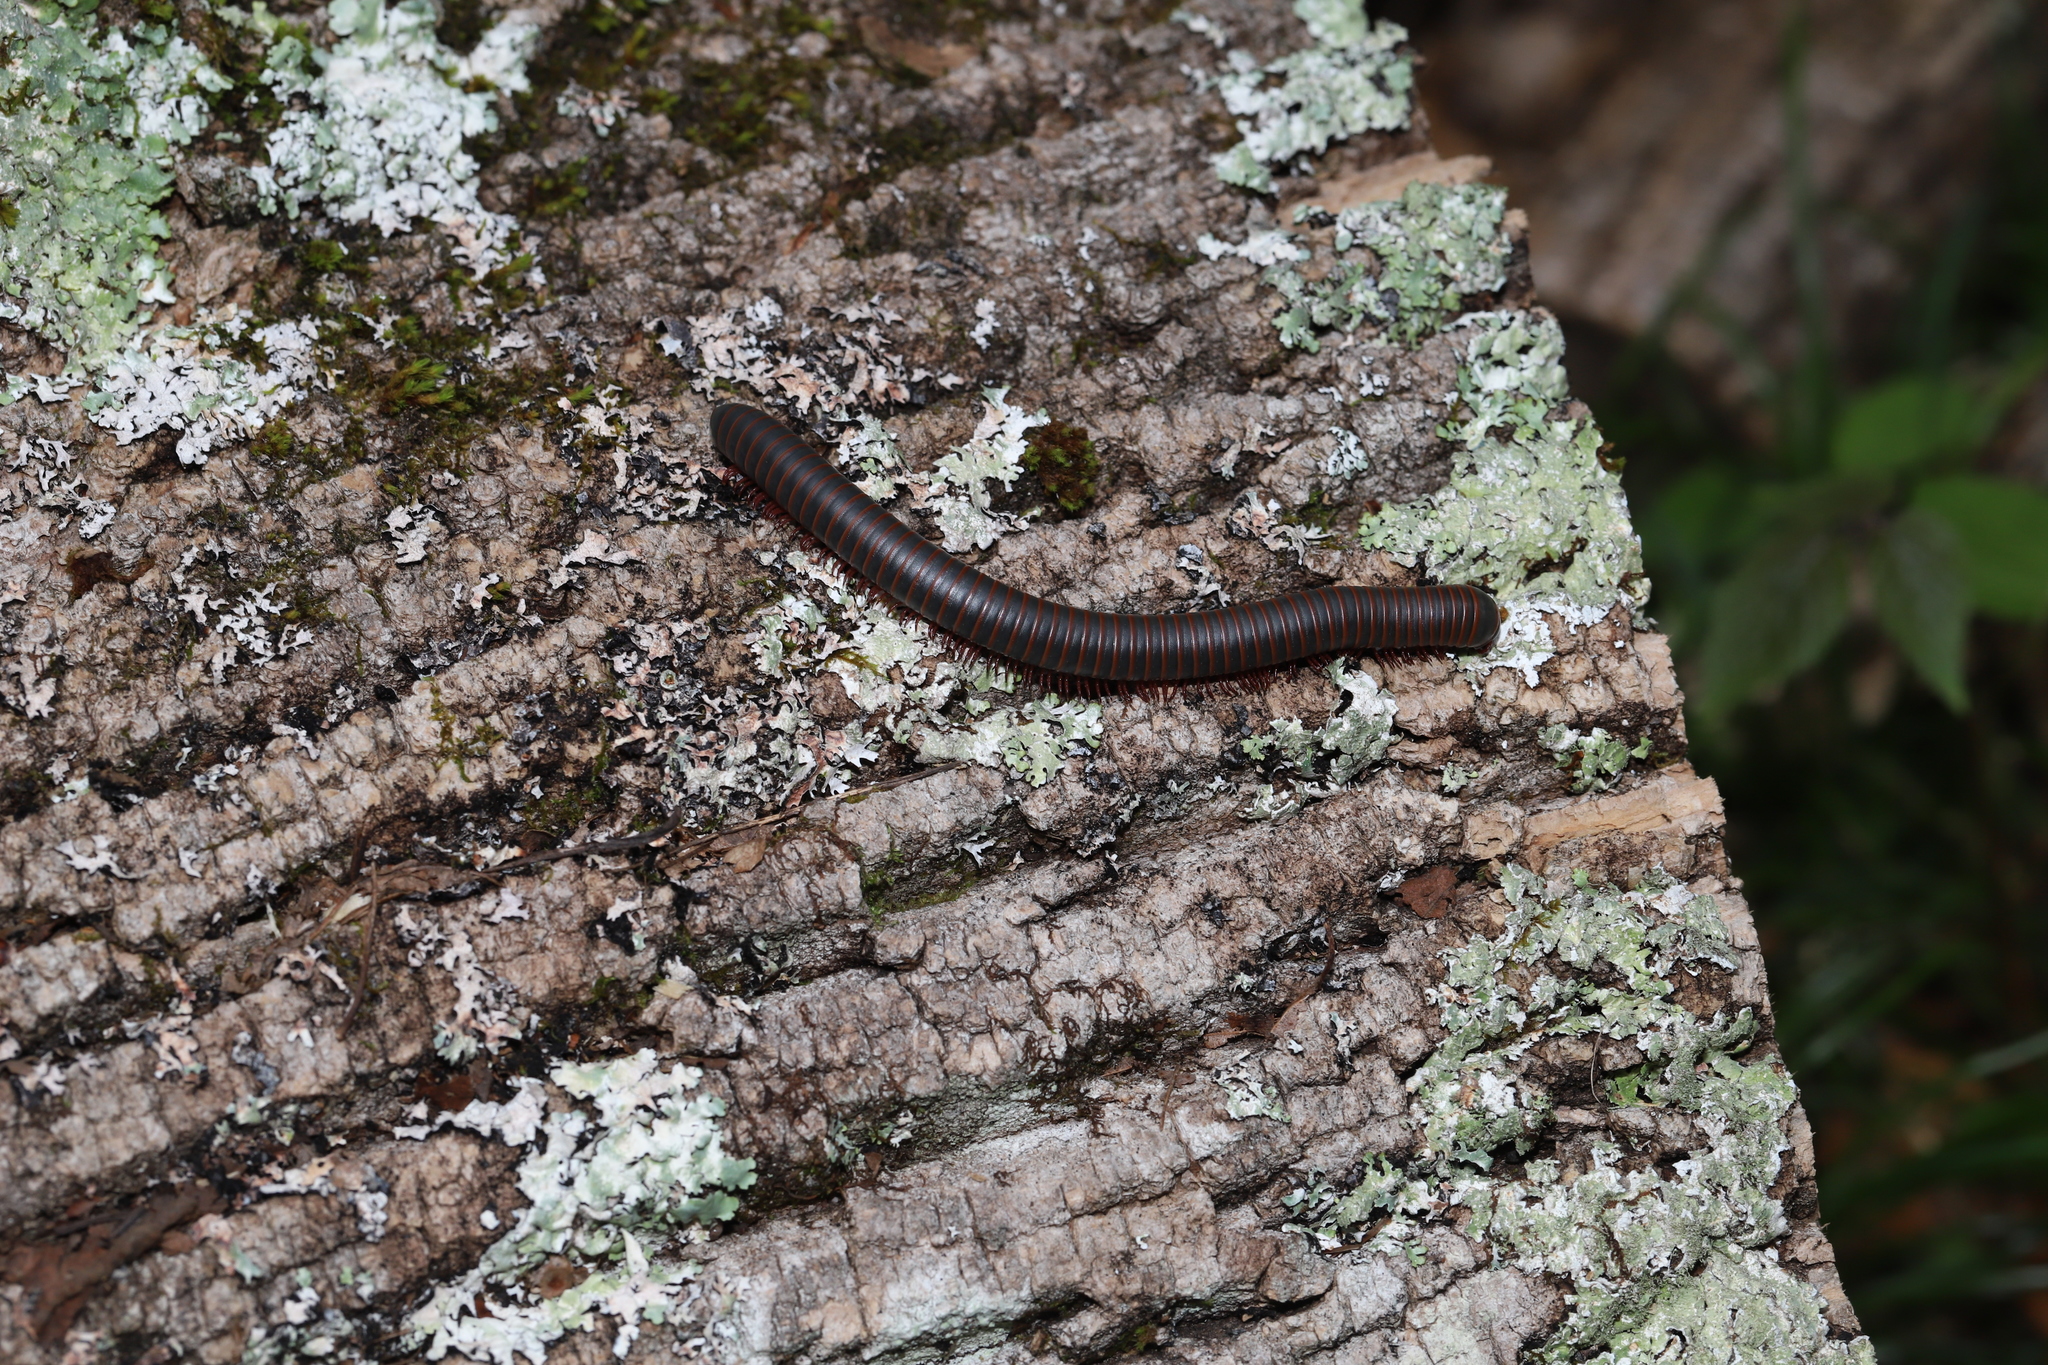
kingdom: Animalia
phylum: Arthropoda
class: Diplopoda
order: Spirobolida
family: Spirobolidae
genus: Narceus
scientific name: Narceus
